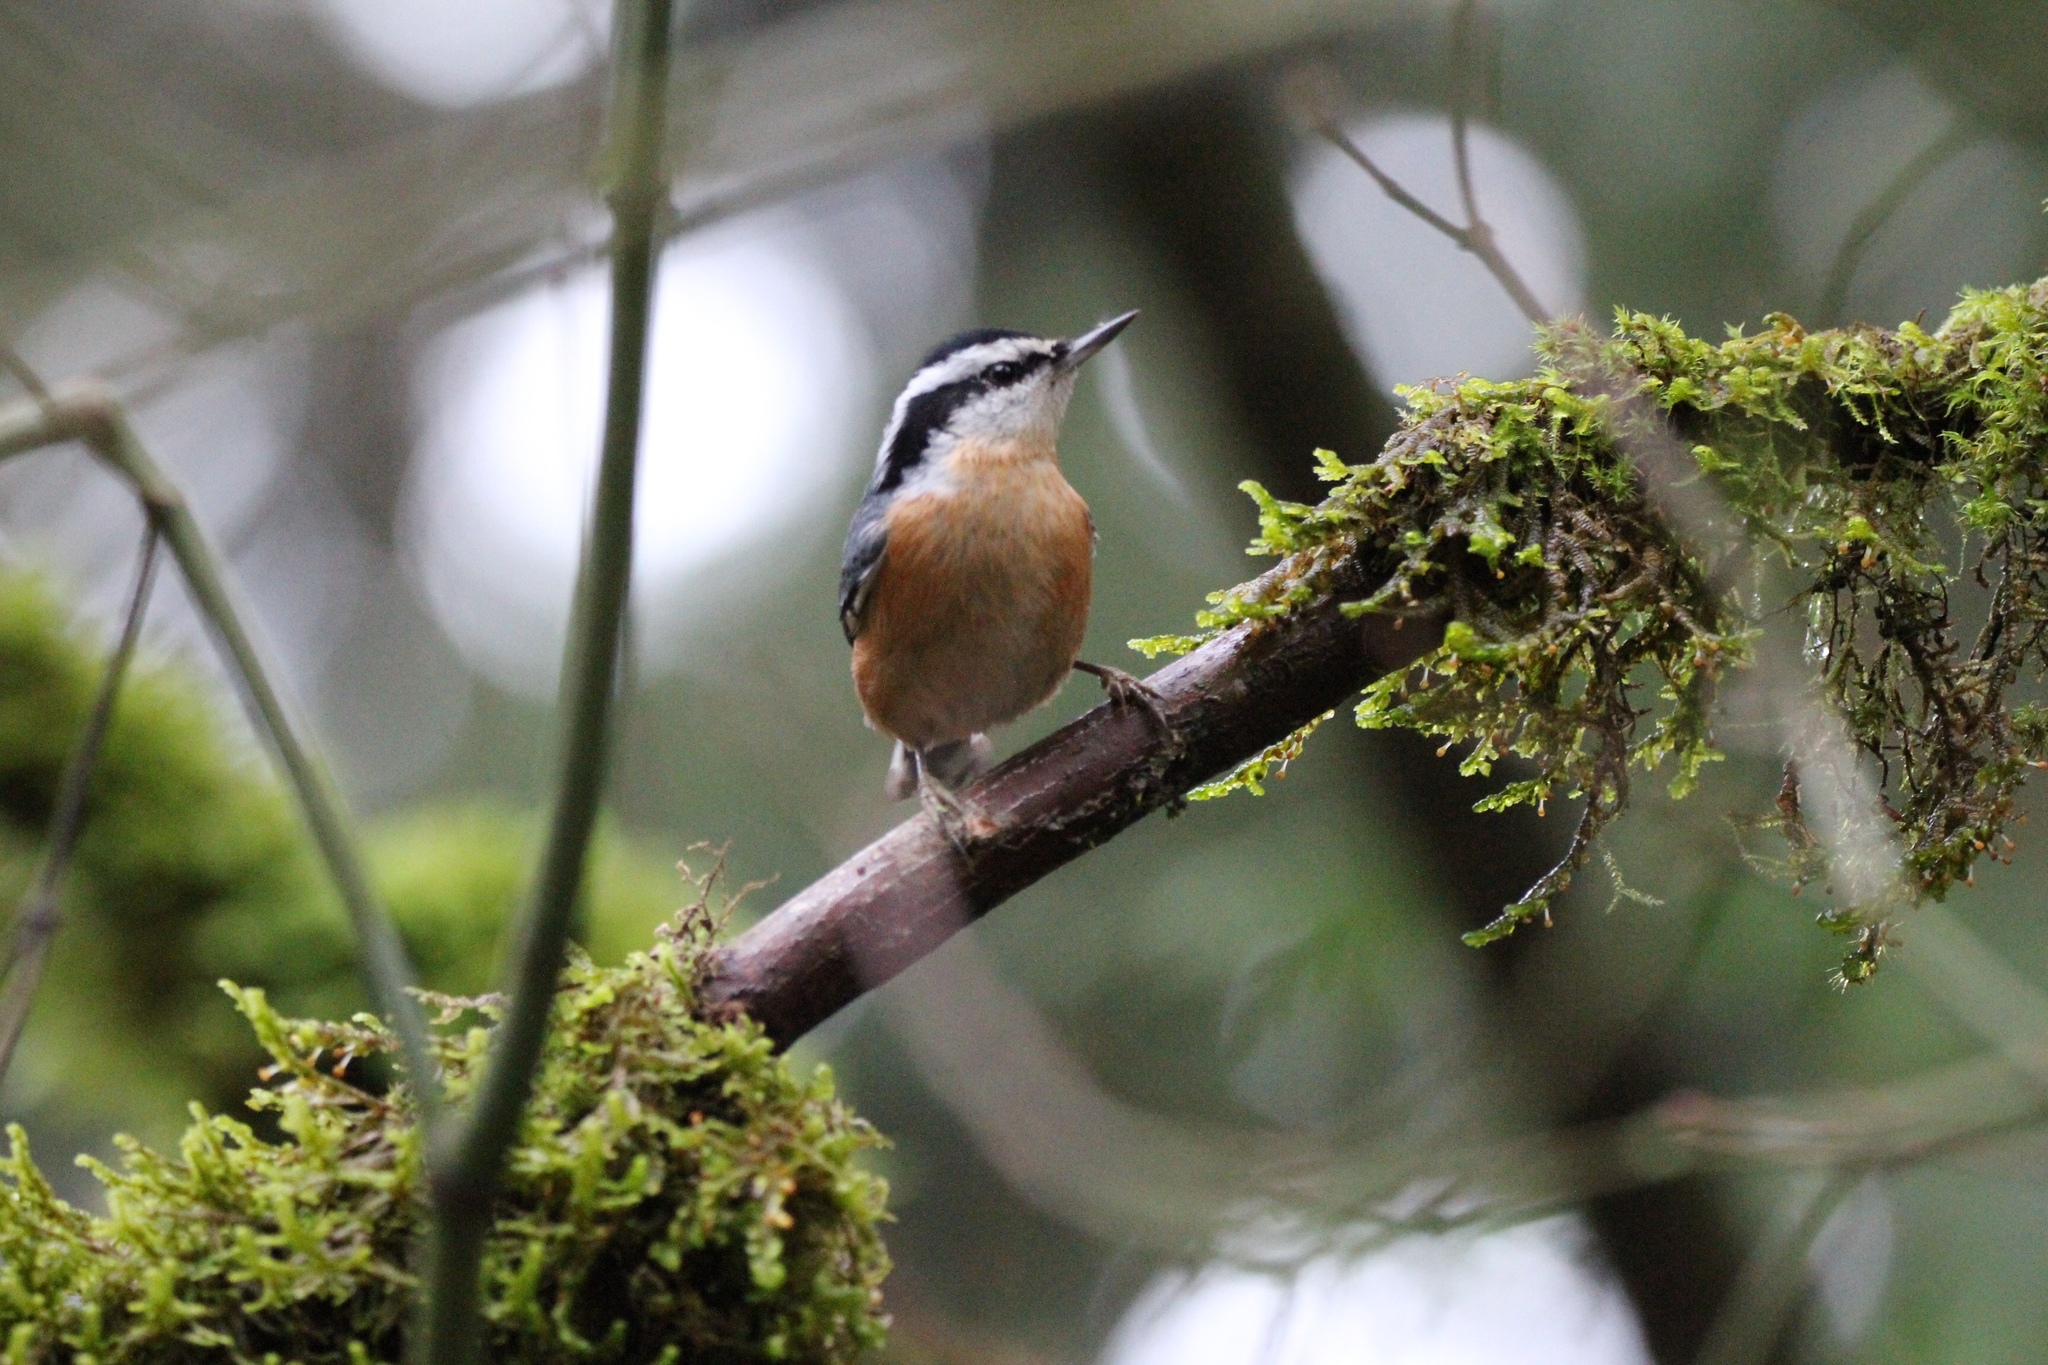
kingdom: Animalia
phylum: Chordata
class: Aves
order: Passeriformes
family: Sittidae
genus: Sitta
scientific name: Sitta canadensis
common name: Red-breasted nuthatch
